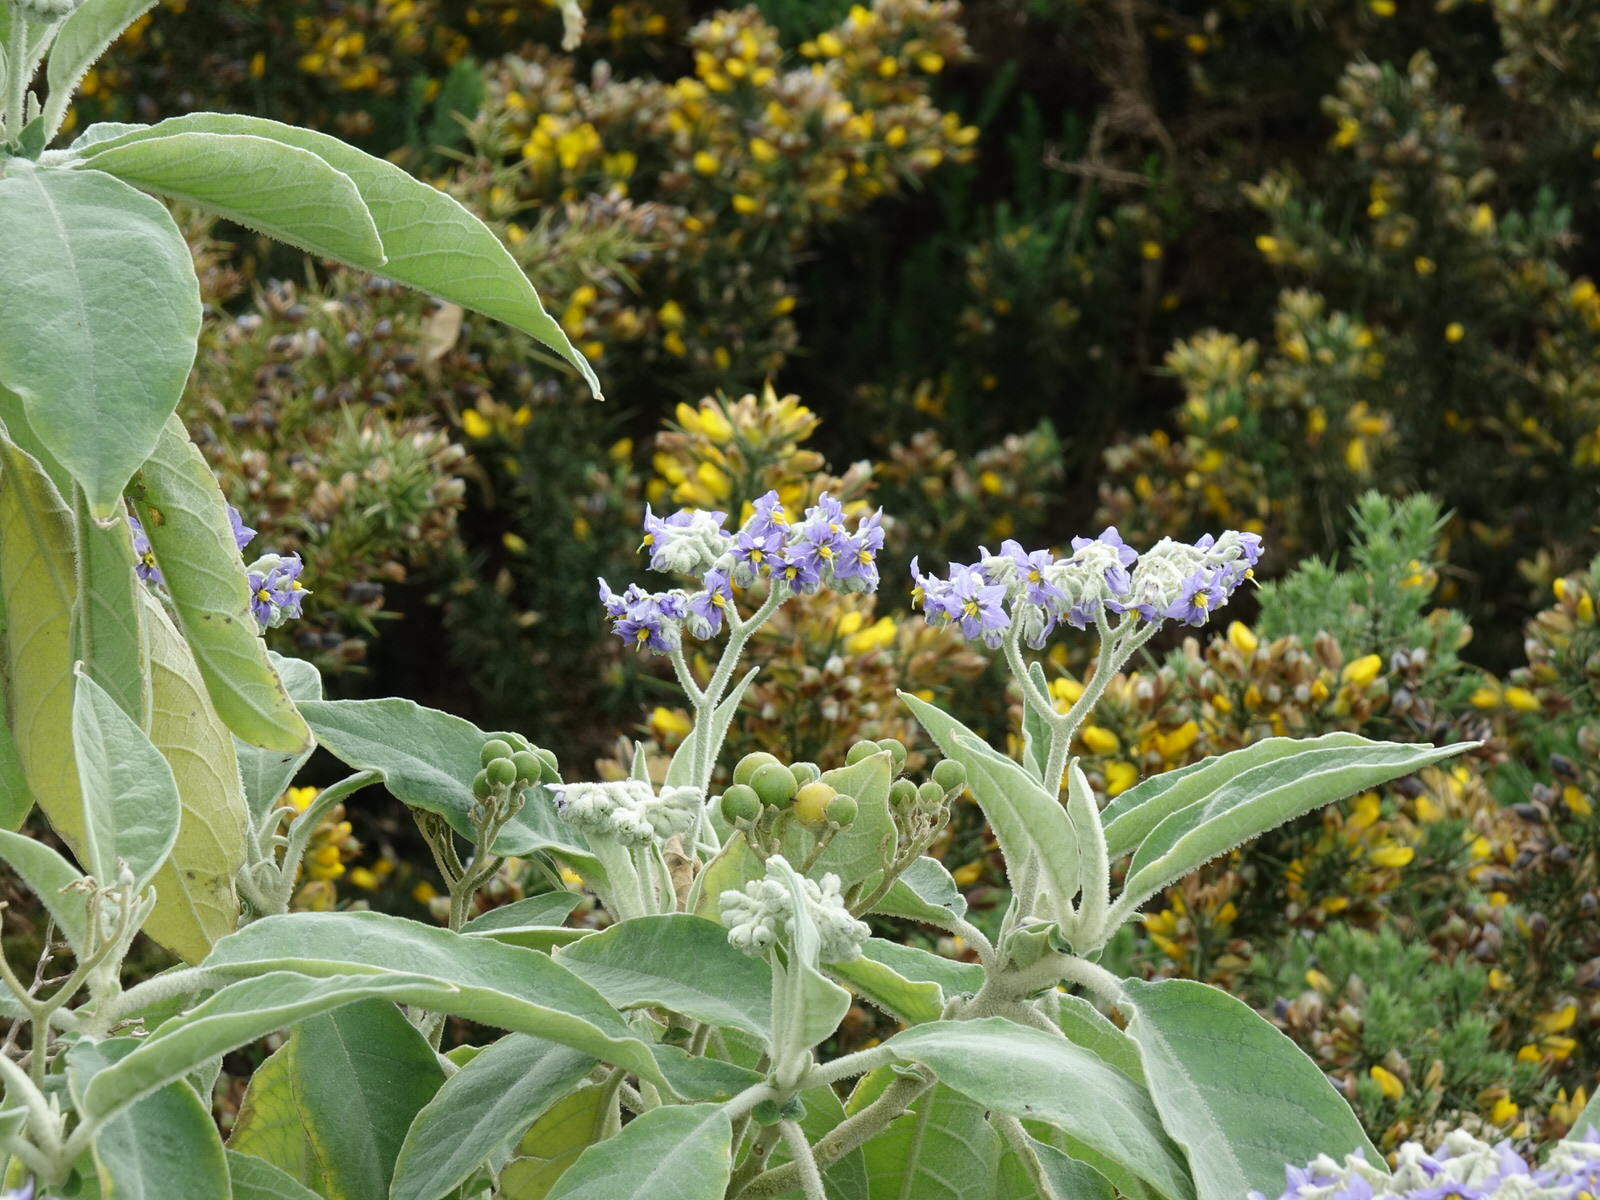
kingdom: Plantae
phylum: Tracheophyta
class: Magnoliopsida
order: Solanales
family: Solanaceae
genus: Solanum
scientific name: Solanum mauritianum
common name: Earleaf nightshade
